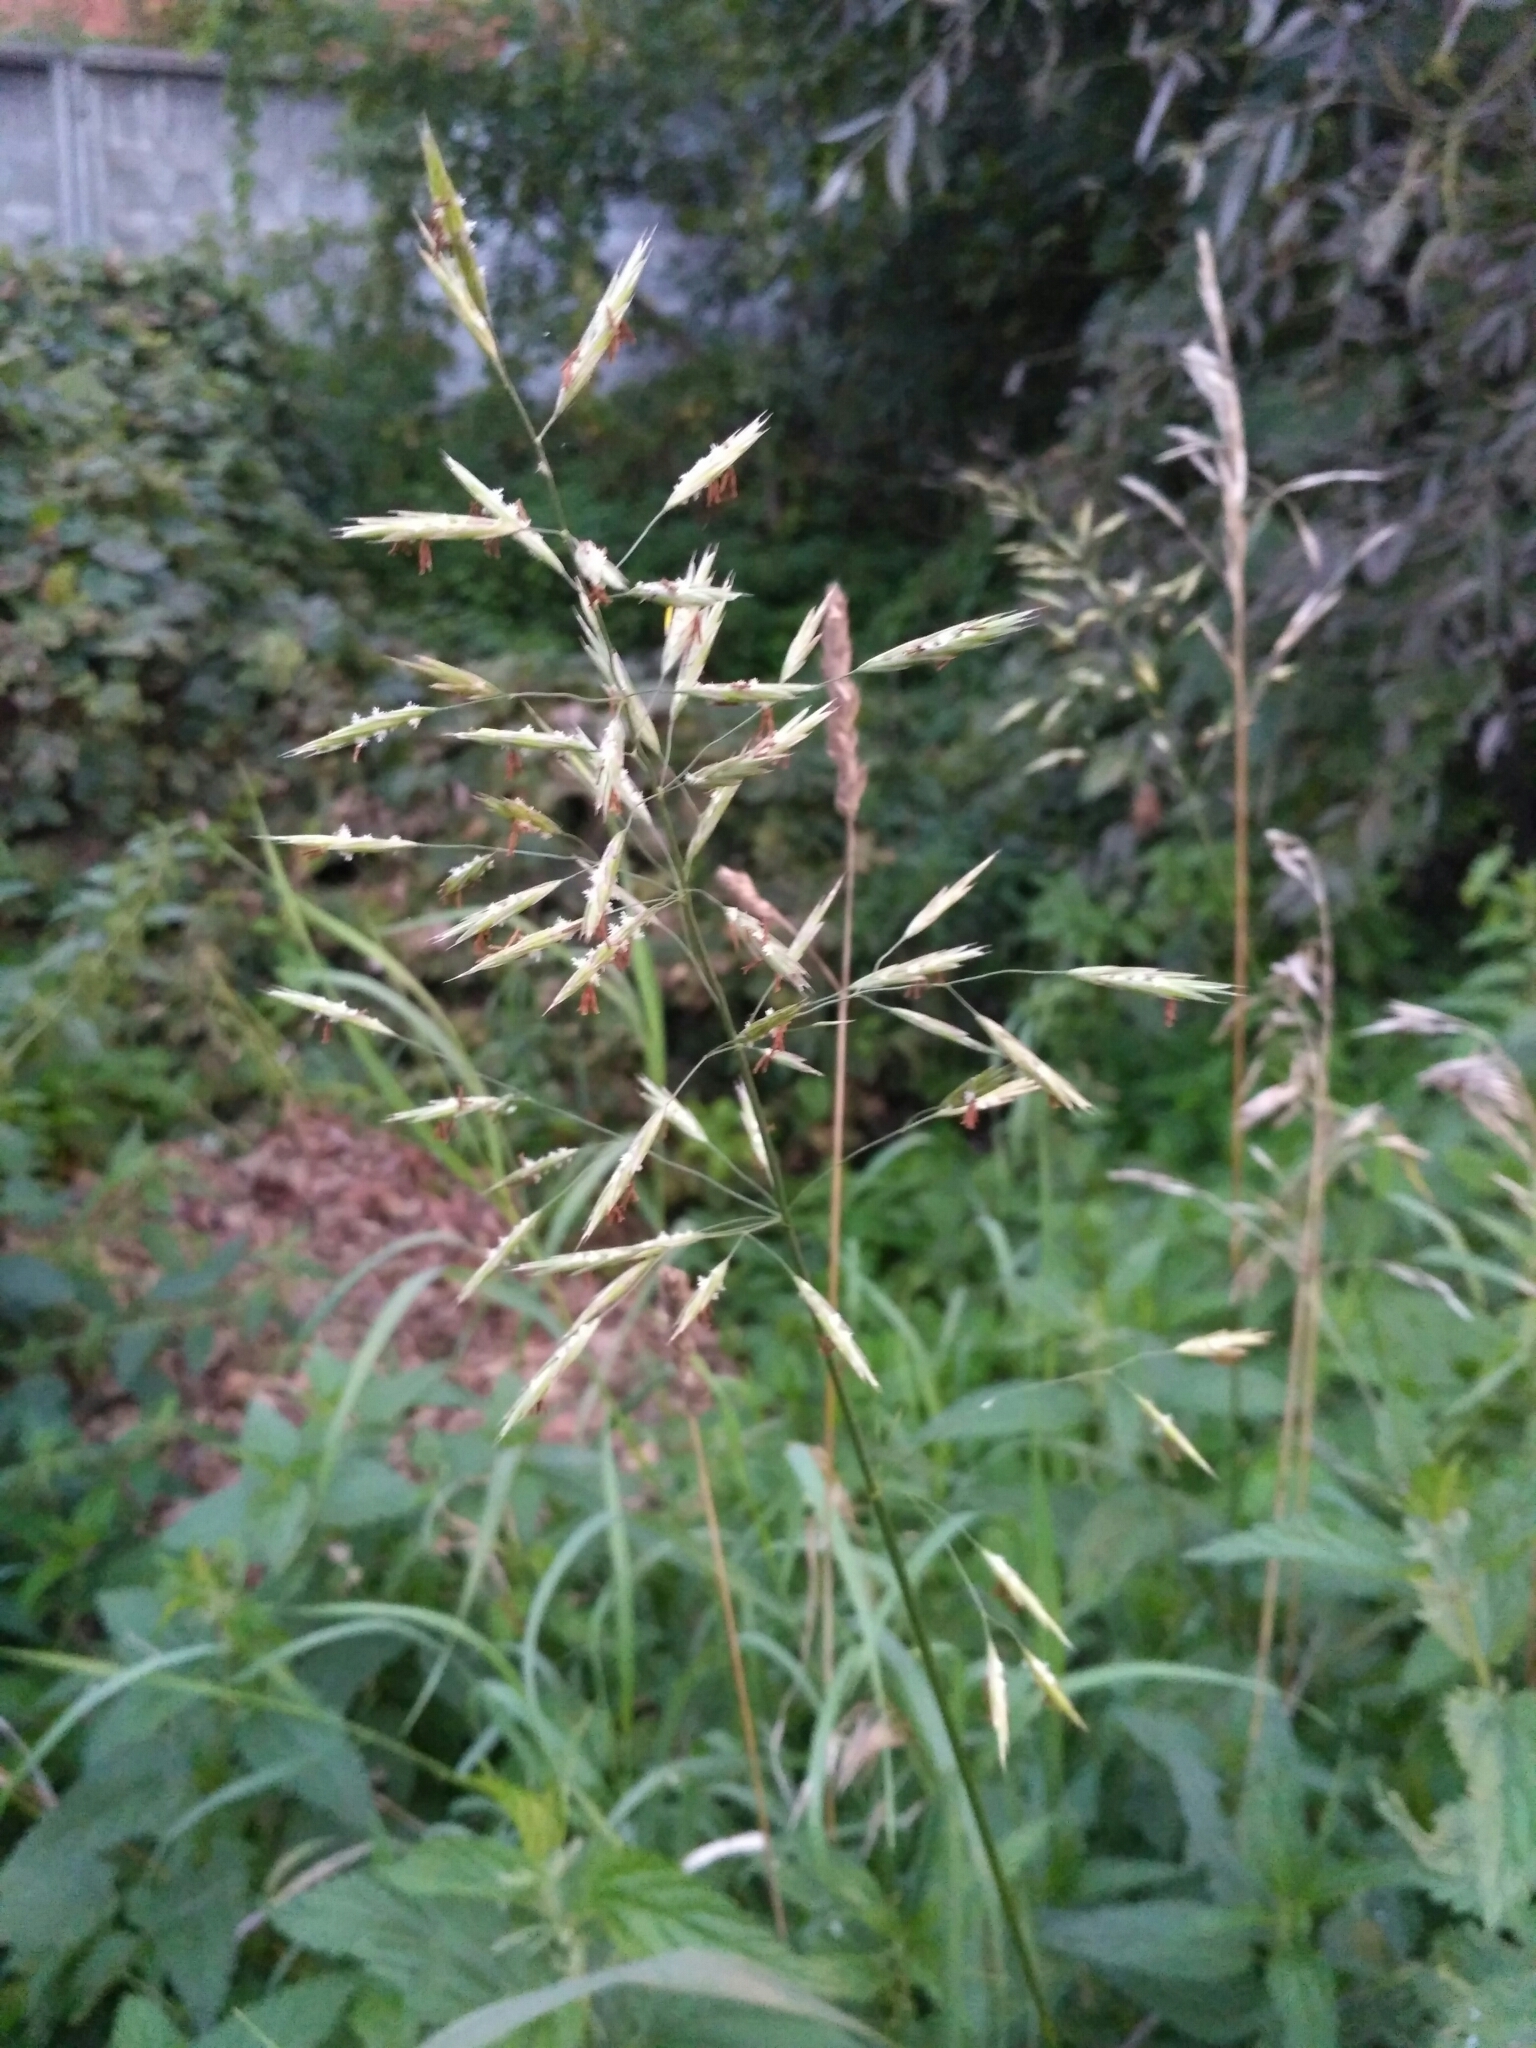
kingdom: Plantae
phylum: Tracheophyta
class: Liliopsida
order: Poales
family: Poaceae
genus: Bromus
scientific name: Bromus inermis
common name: Smooth brome
